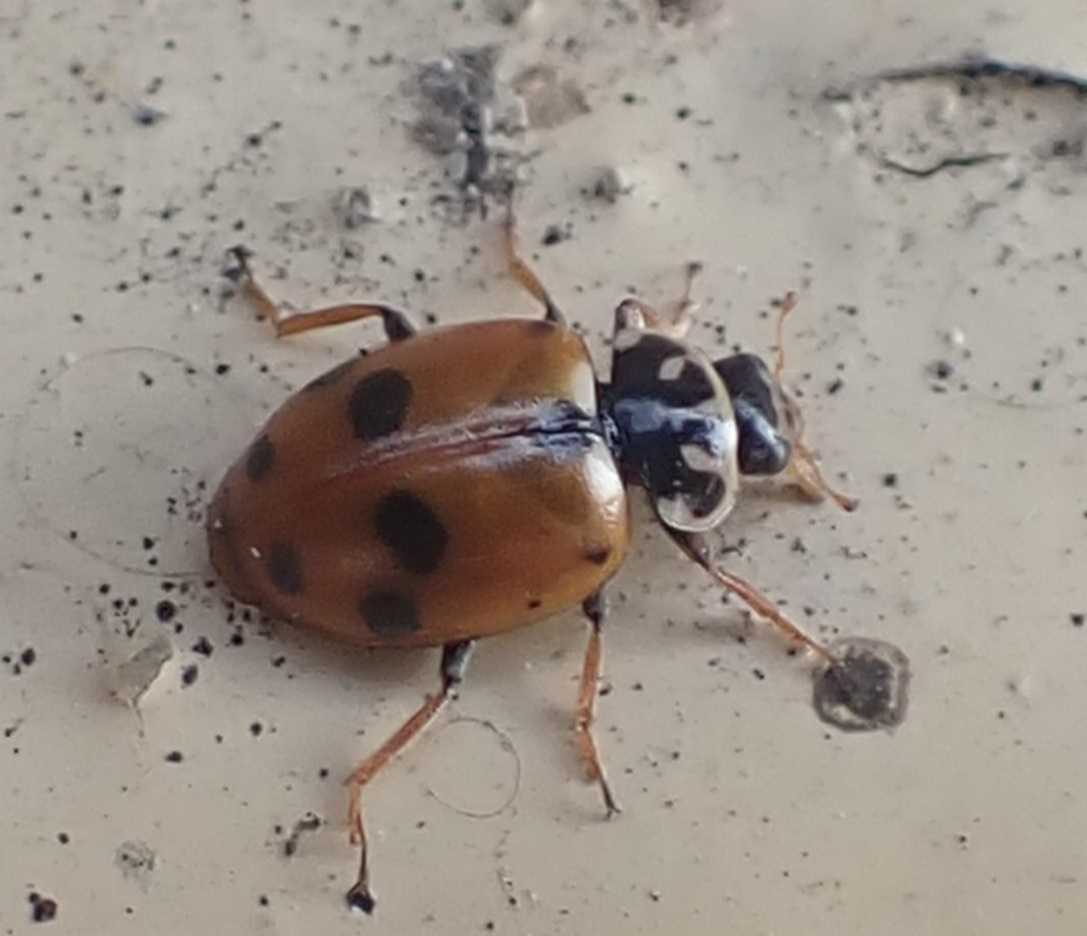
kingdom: Animalia
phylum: Arthropoda
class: Insecta
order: Coleoptera
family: Coccinellidae
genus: Hippodamia
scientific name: Hippodamia variegata
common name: Ladybird beetle
